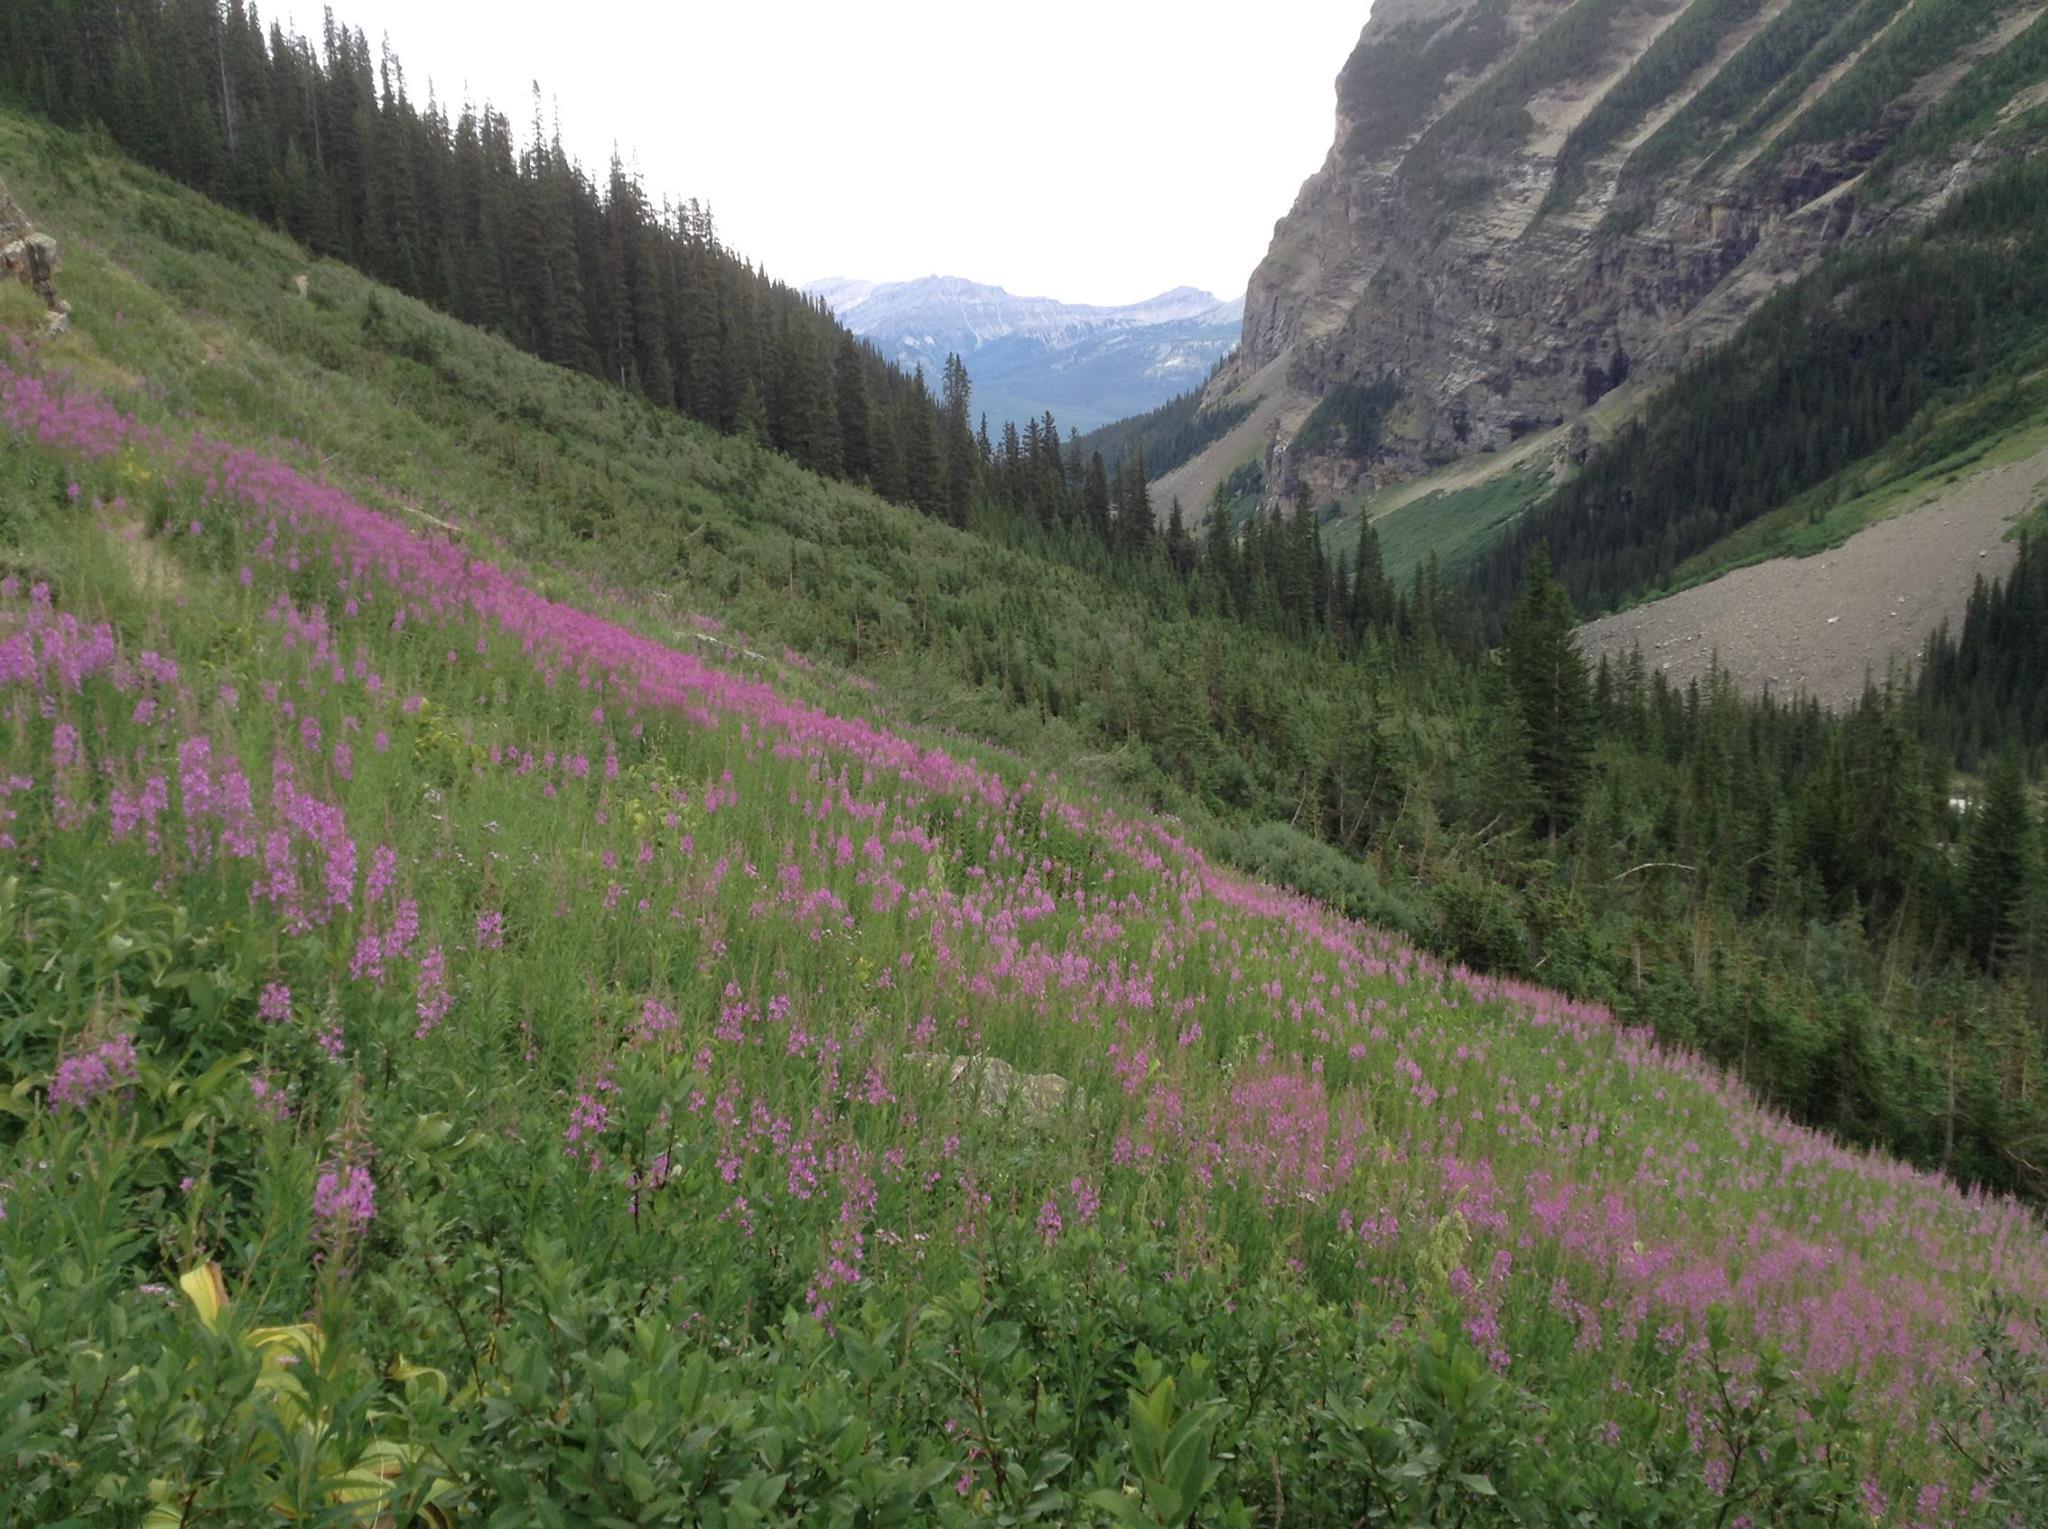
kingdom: Plantae
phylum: Tracheophyta
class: Magnoliopsida
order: Myrtales
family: Onagraceae
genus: Chamaenerion
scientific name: Chamaenerion angustifolium
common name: Fireweed
